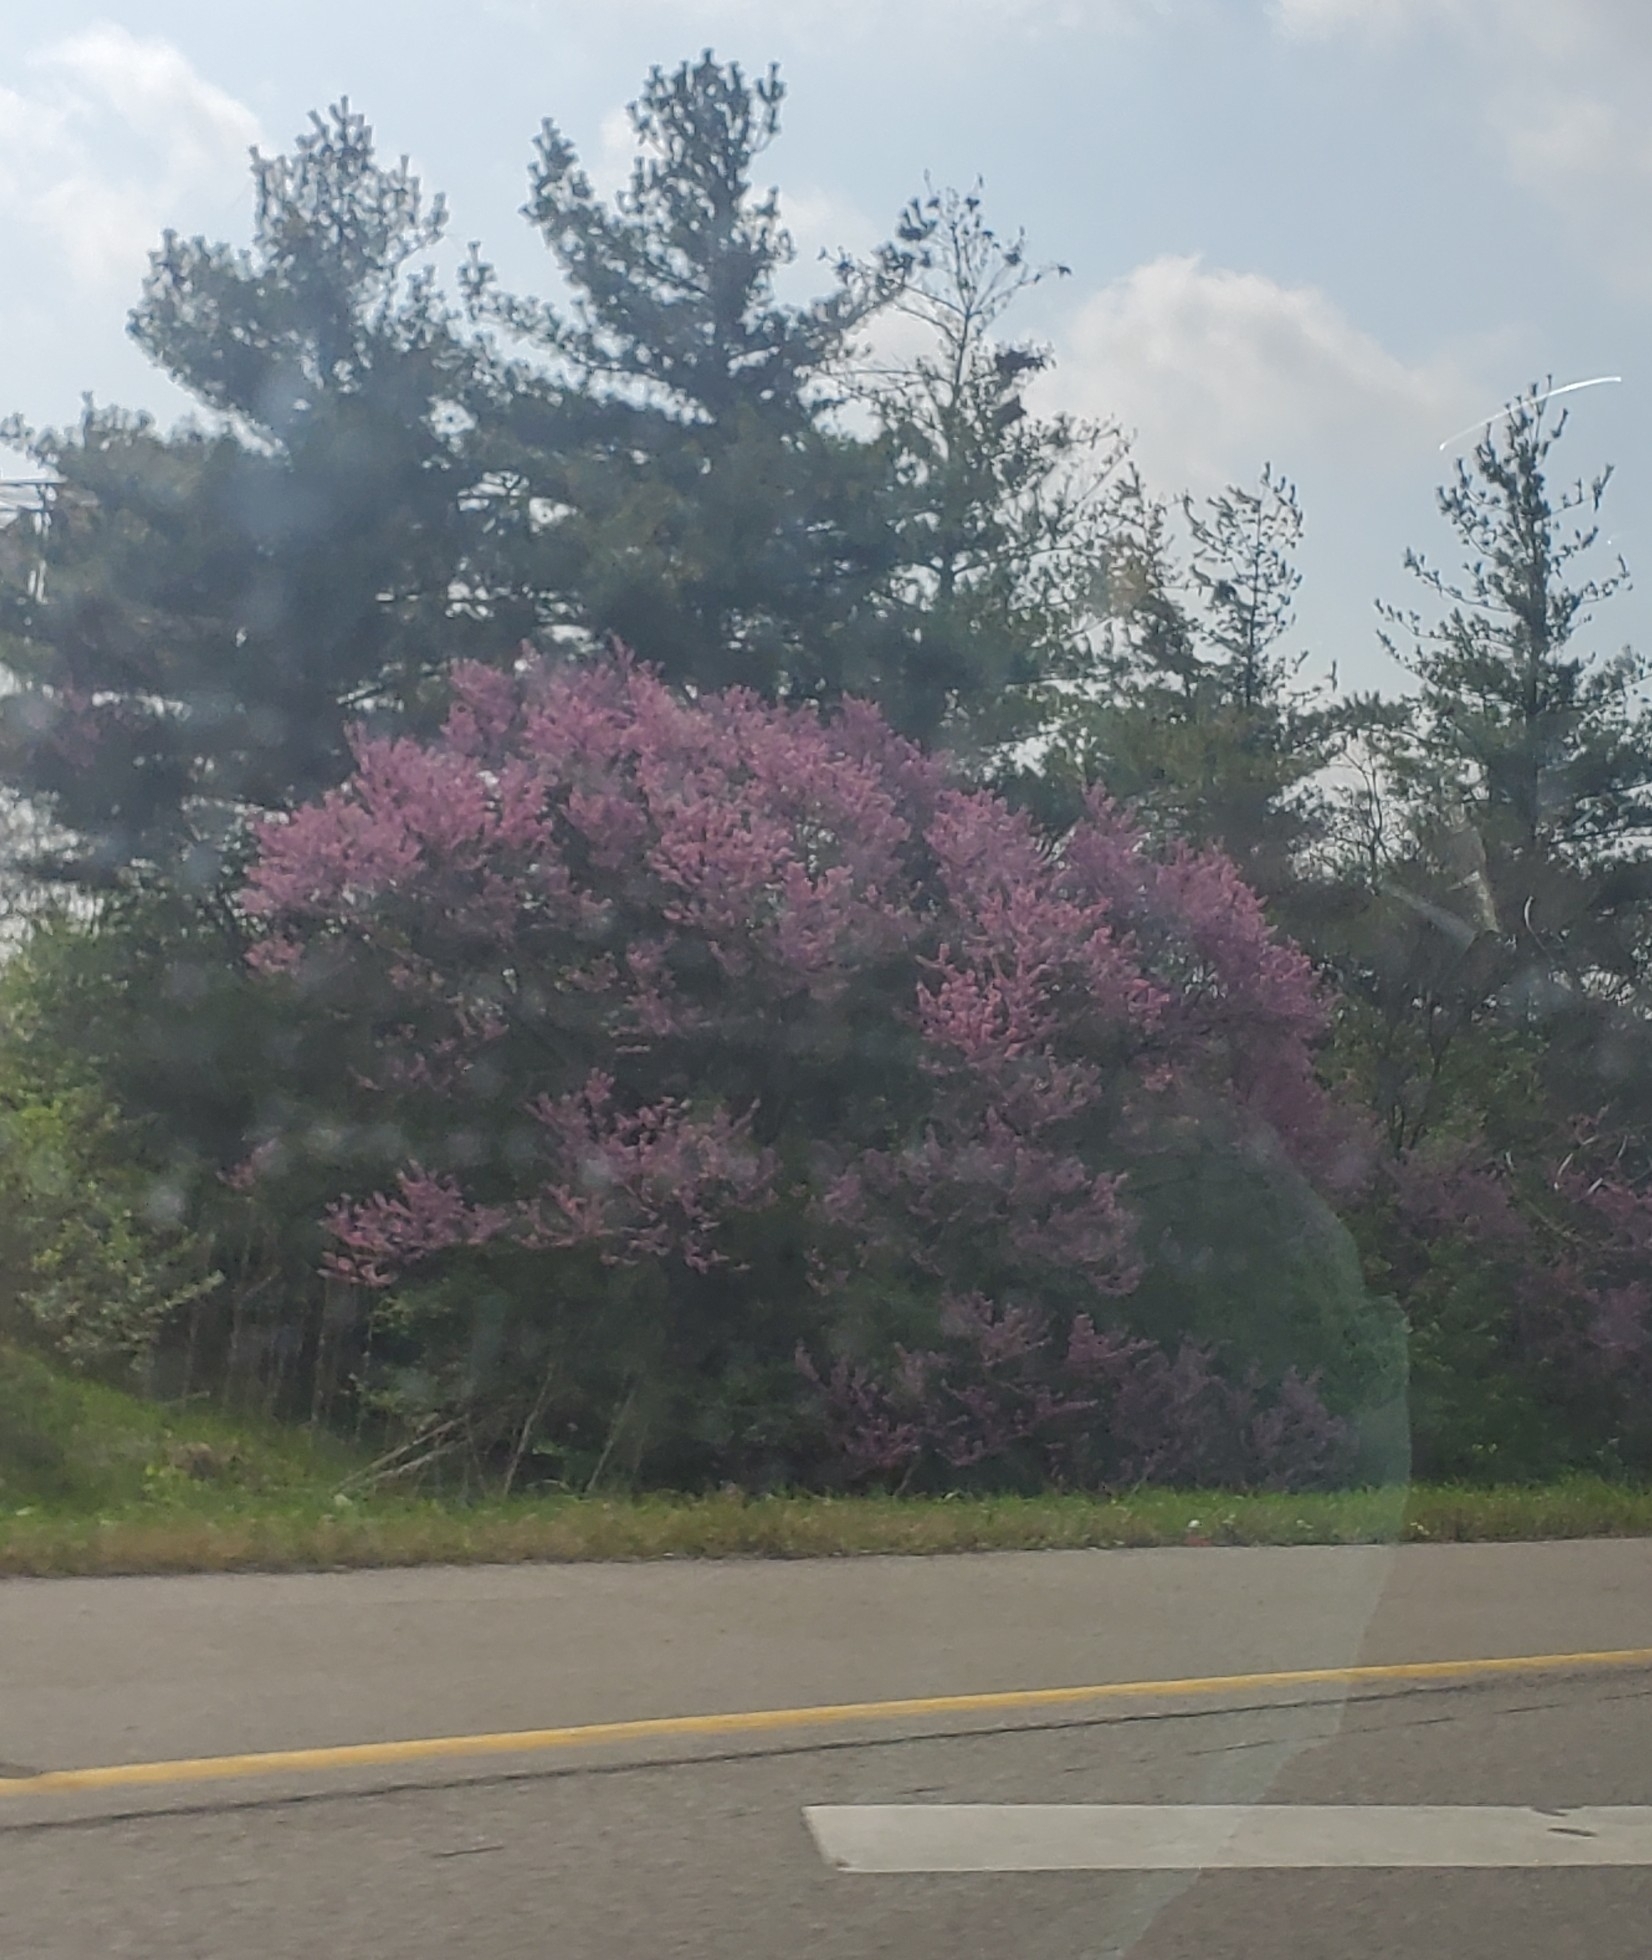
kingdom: Plantae
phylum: Tracheophyta
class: Magnoliopsida
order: Fabales
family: Fabaceae
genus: Cercis
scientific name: Cercis canadensis
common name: Eastern redbud
